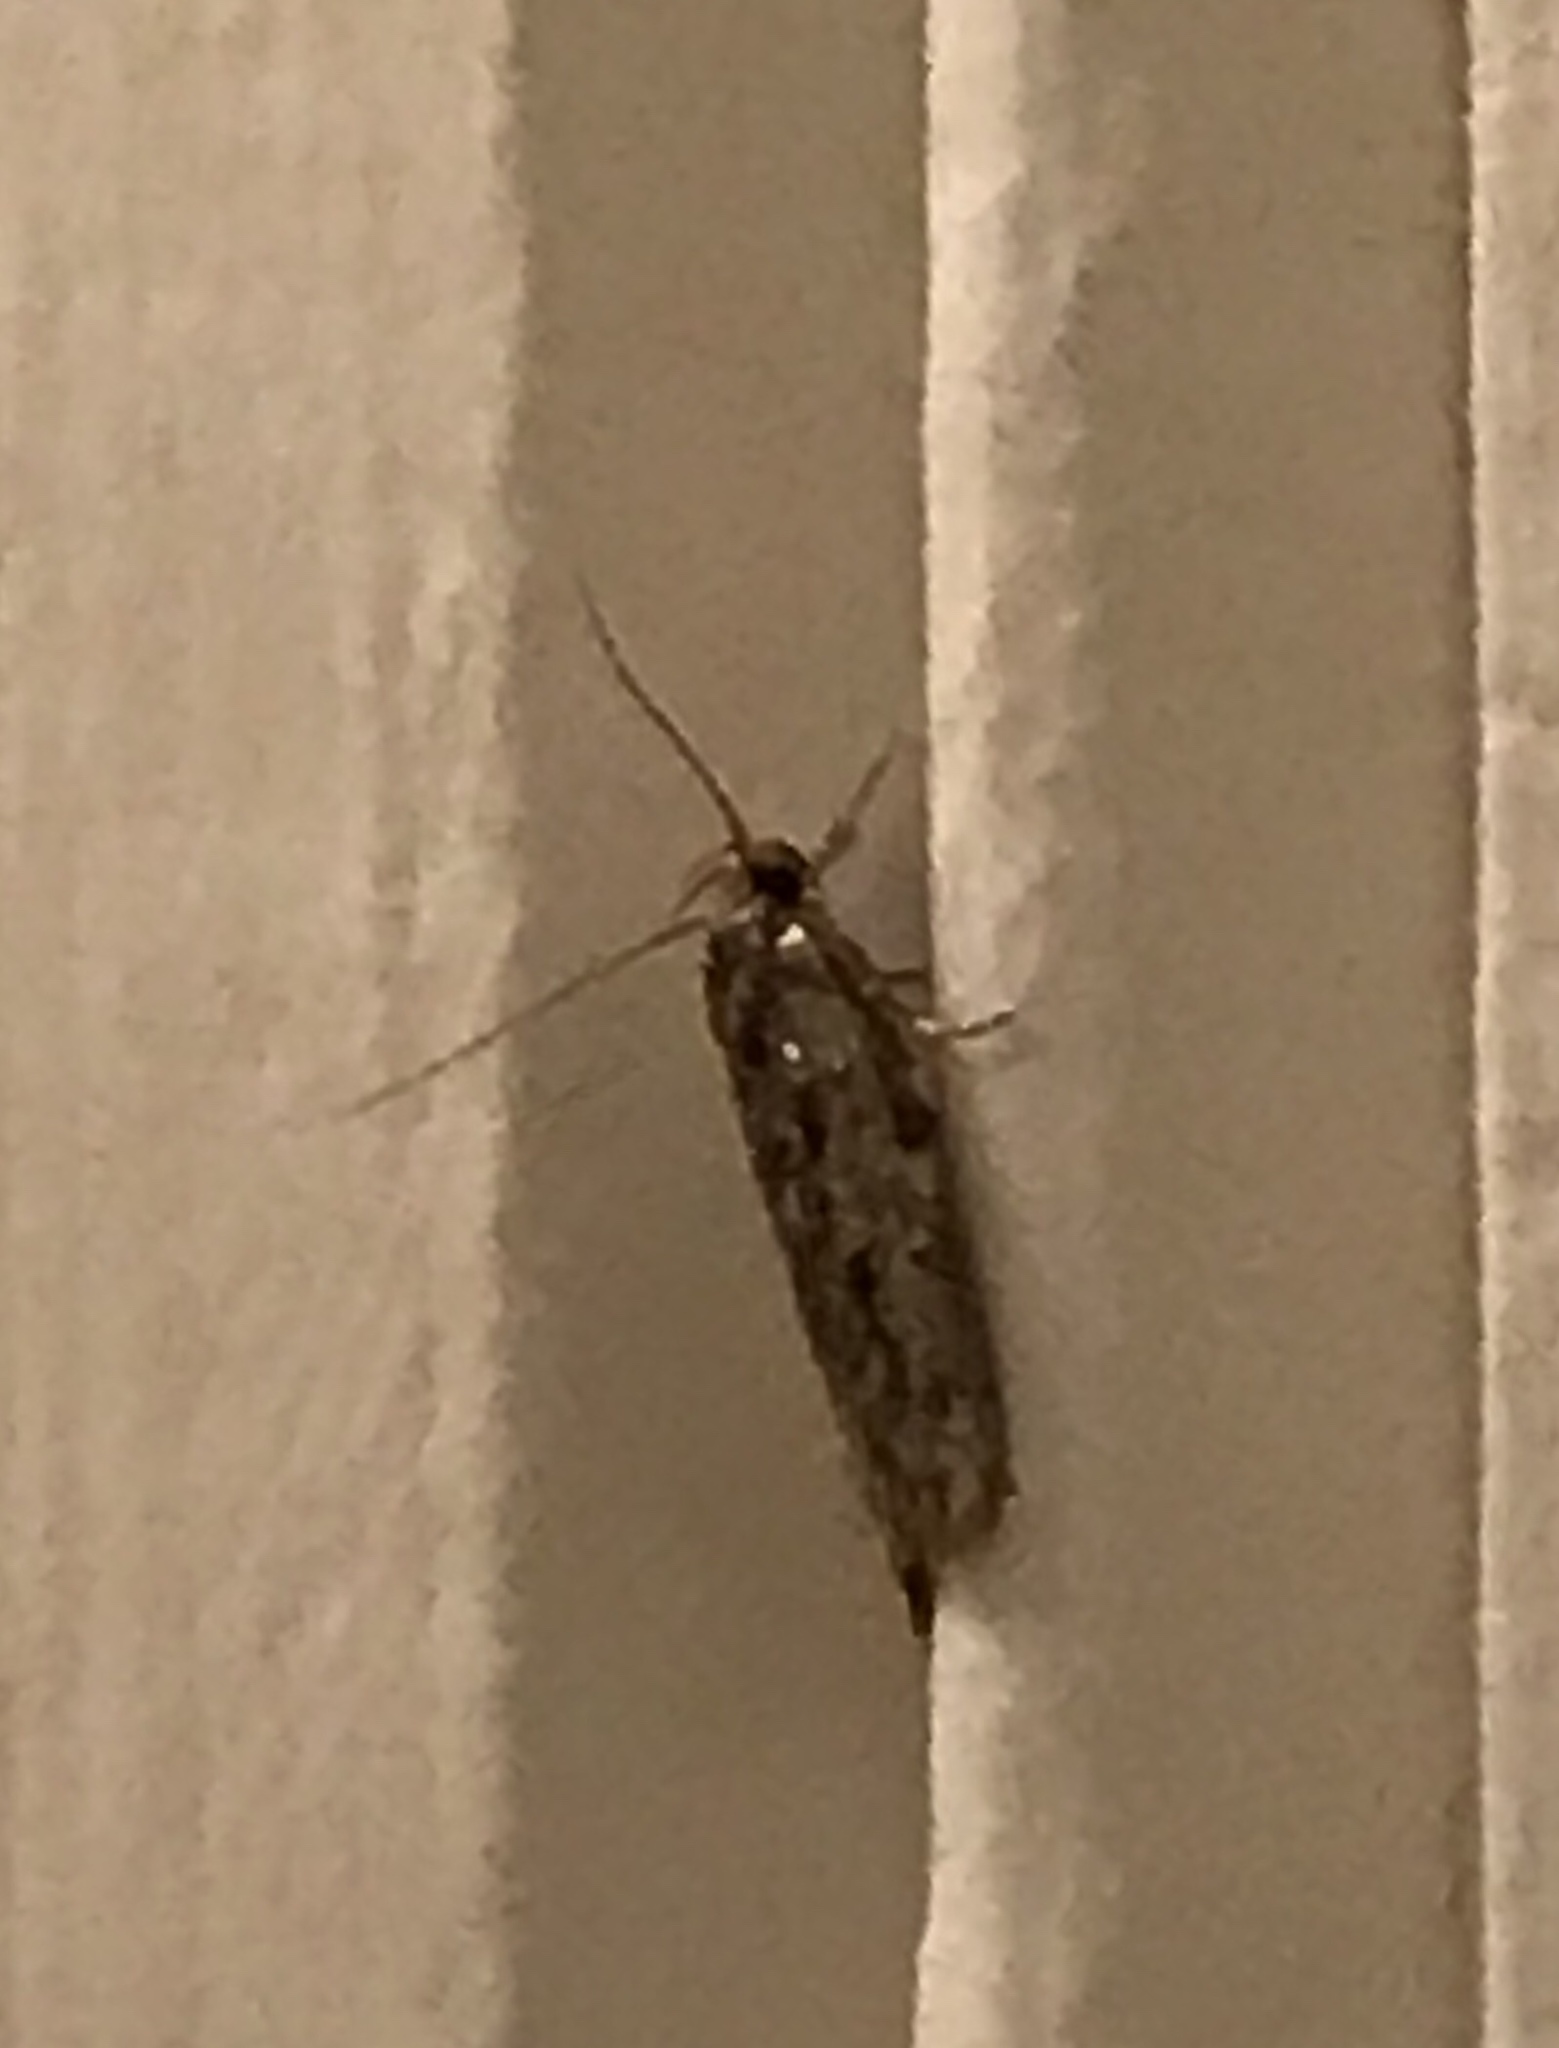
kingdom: Animalia
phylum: Arthropoda
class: Insecta
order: Lepidoptera
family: Oecophoridae
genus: Hofmannophila
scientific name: Hofmannophila pseudospretella
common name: Brown house moth
